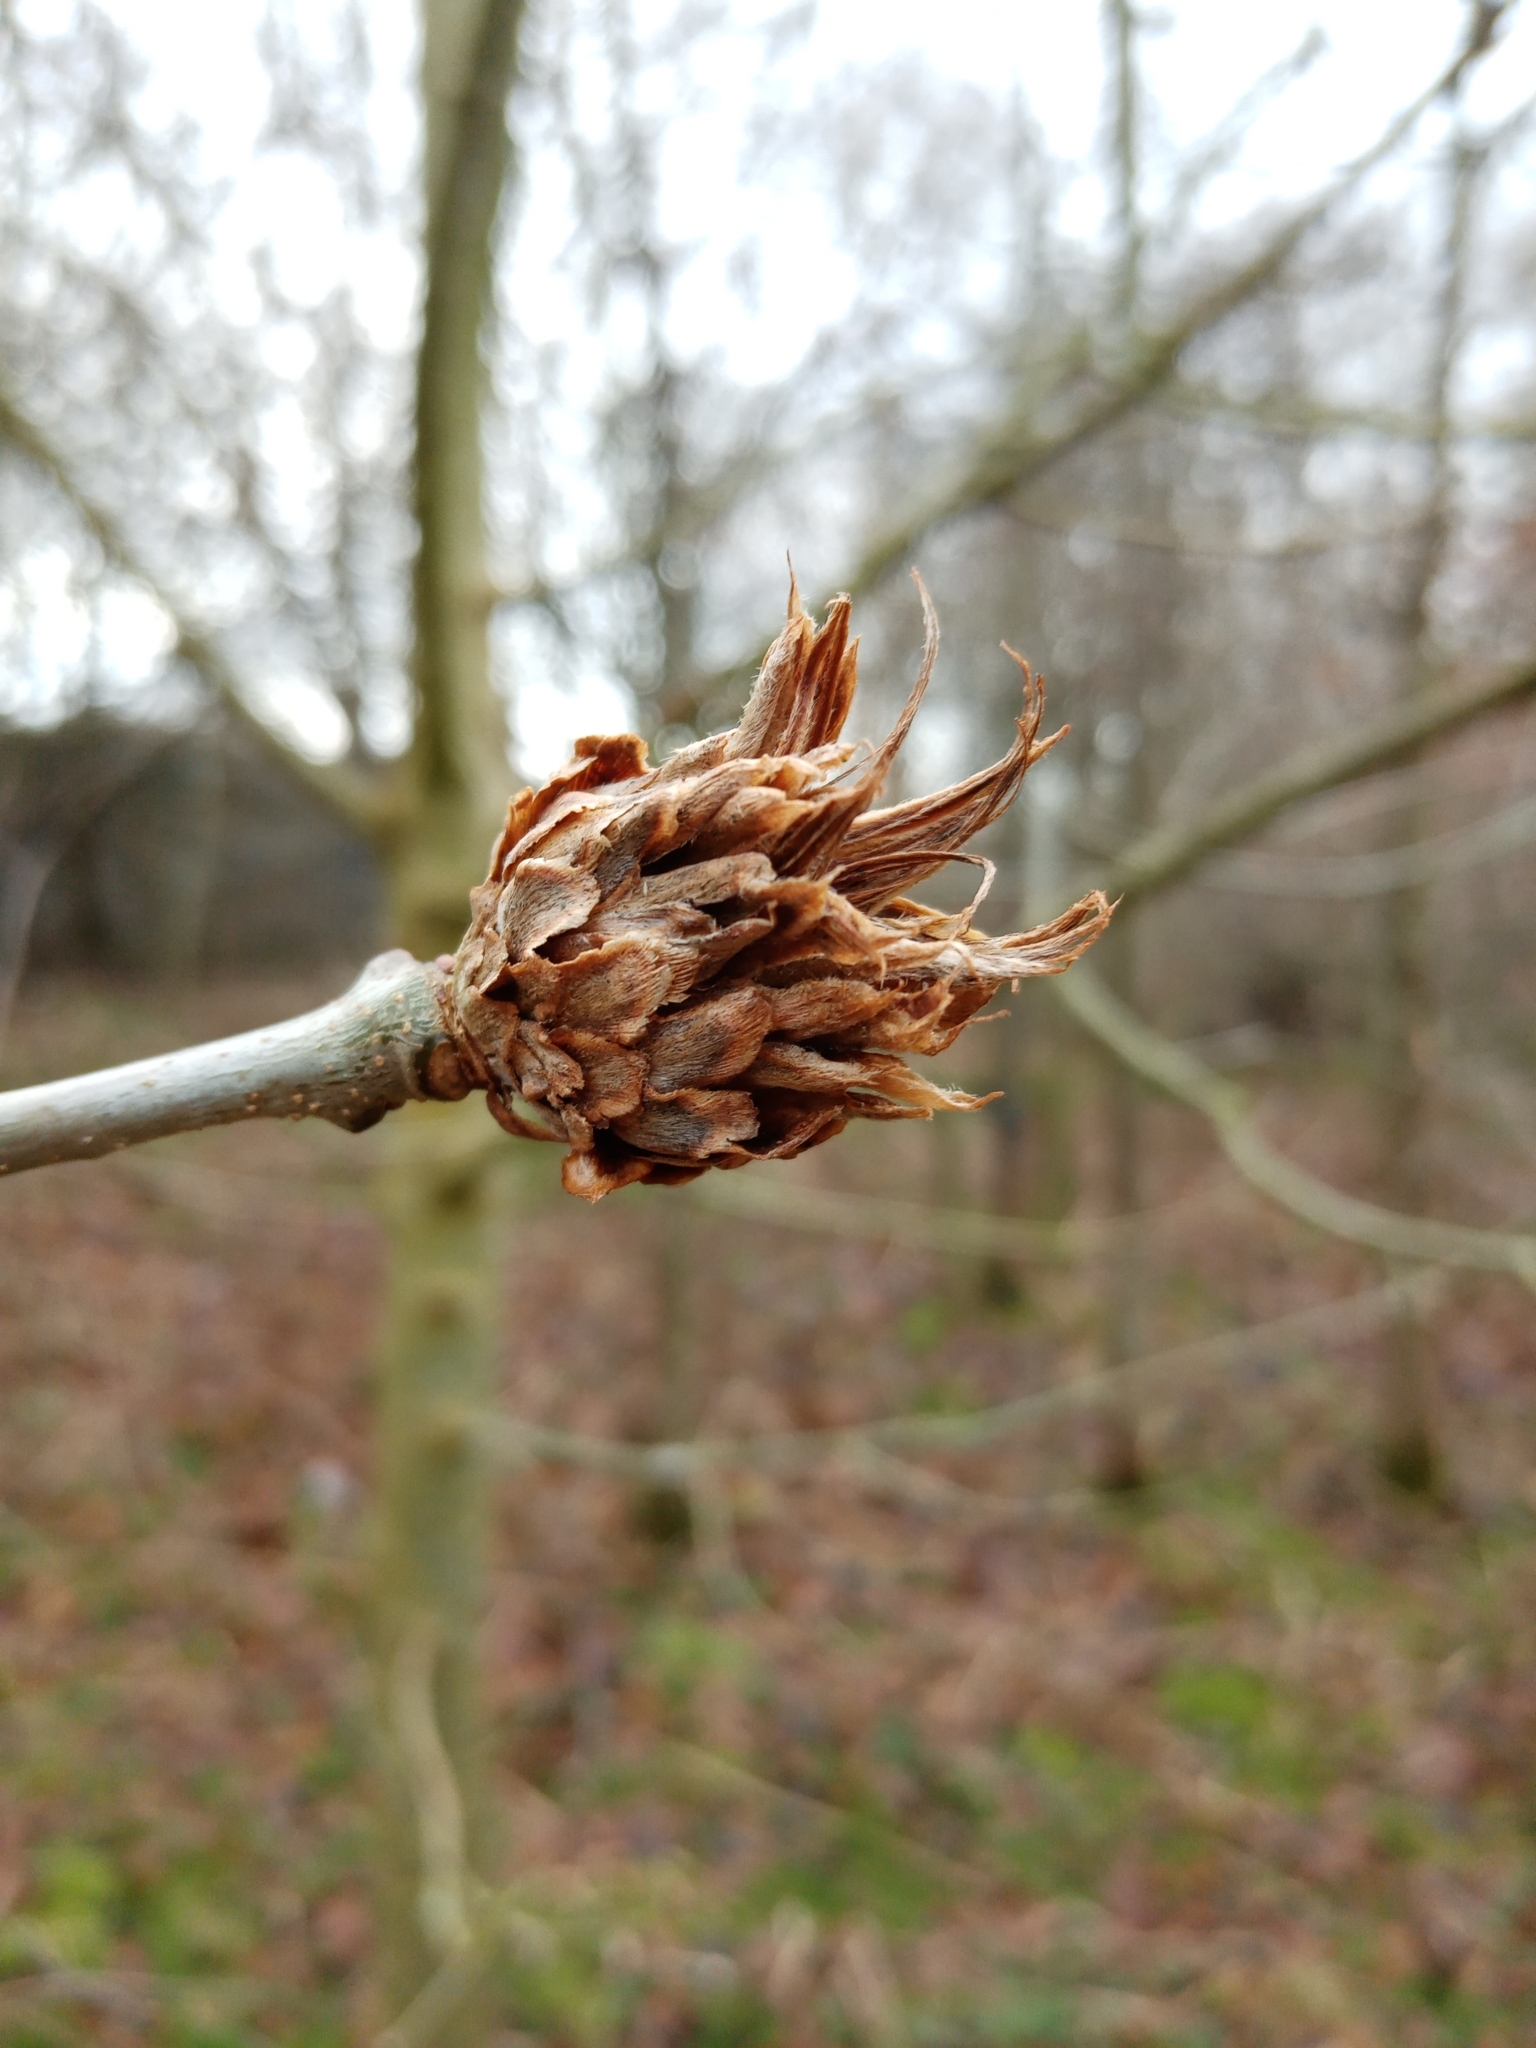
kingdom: Animalia
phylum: Arthropoda
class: Insecta
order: Hymenoptera
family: Cynipidae
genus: Andricus
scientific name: Andricus foecundatrix
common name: Artichoke gall
